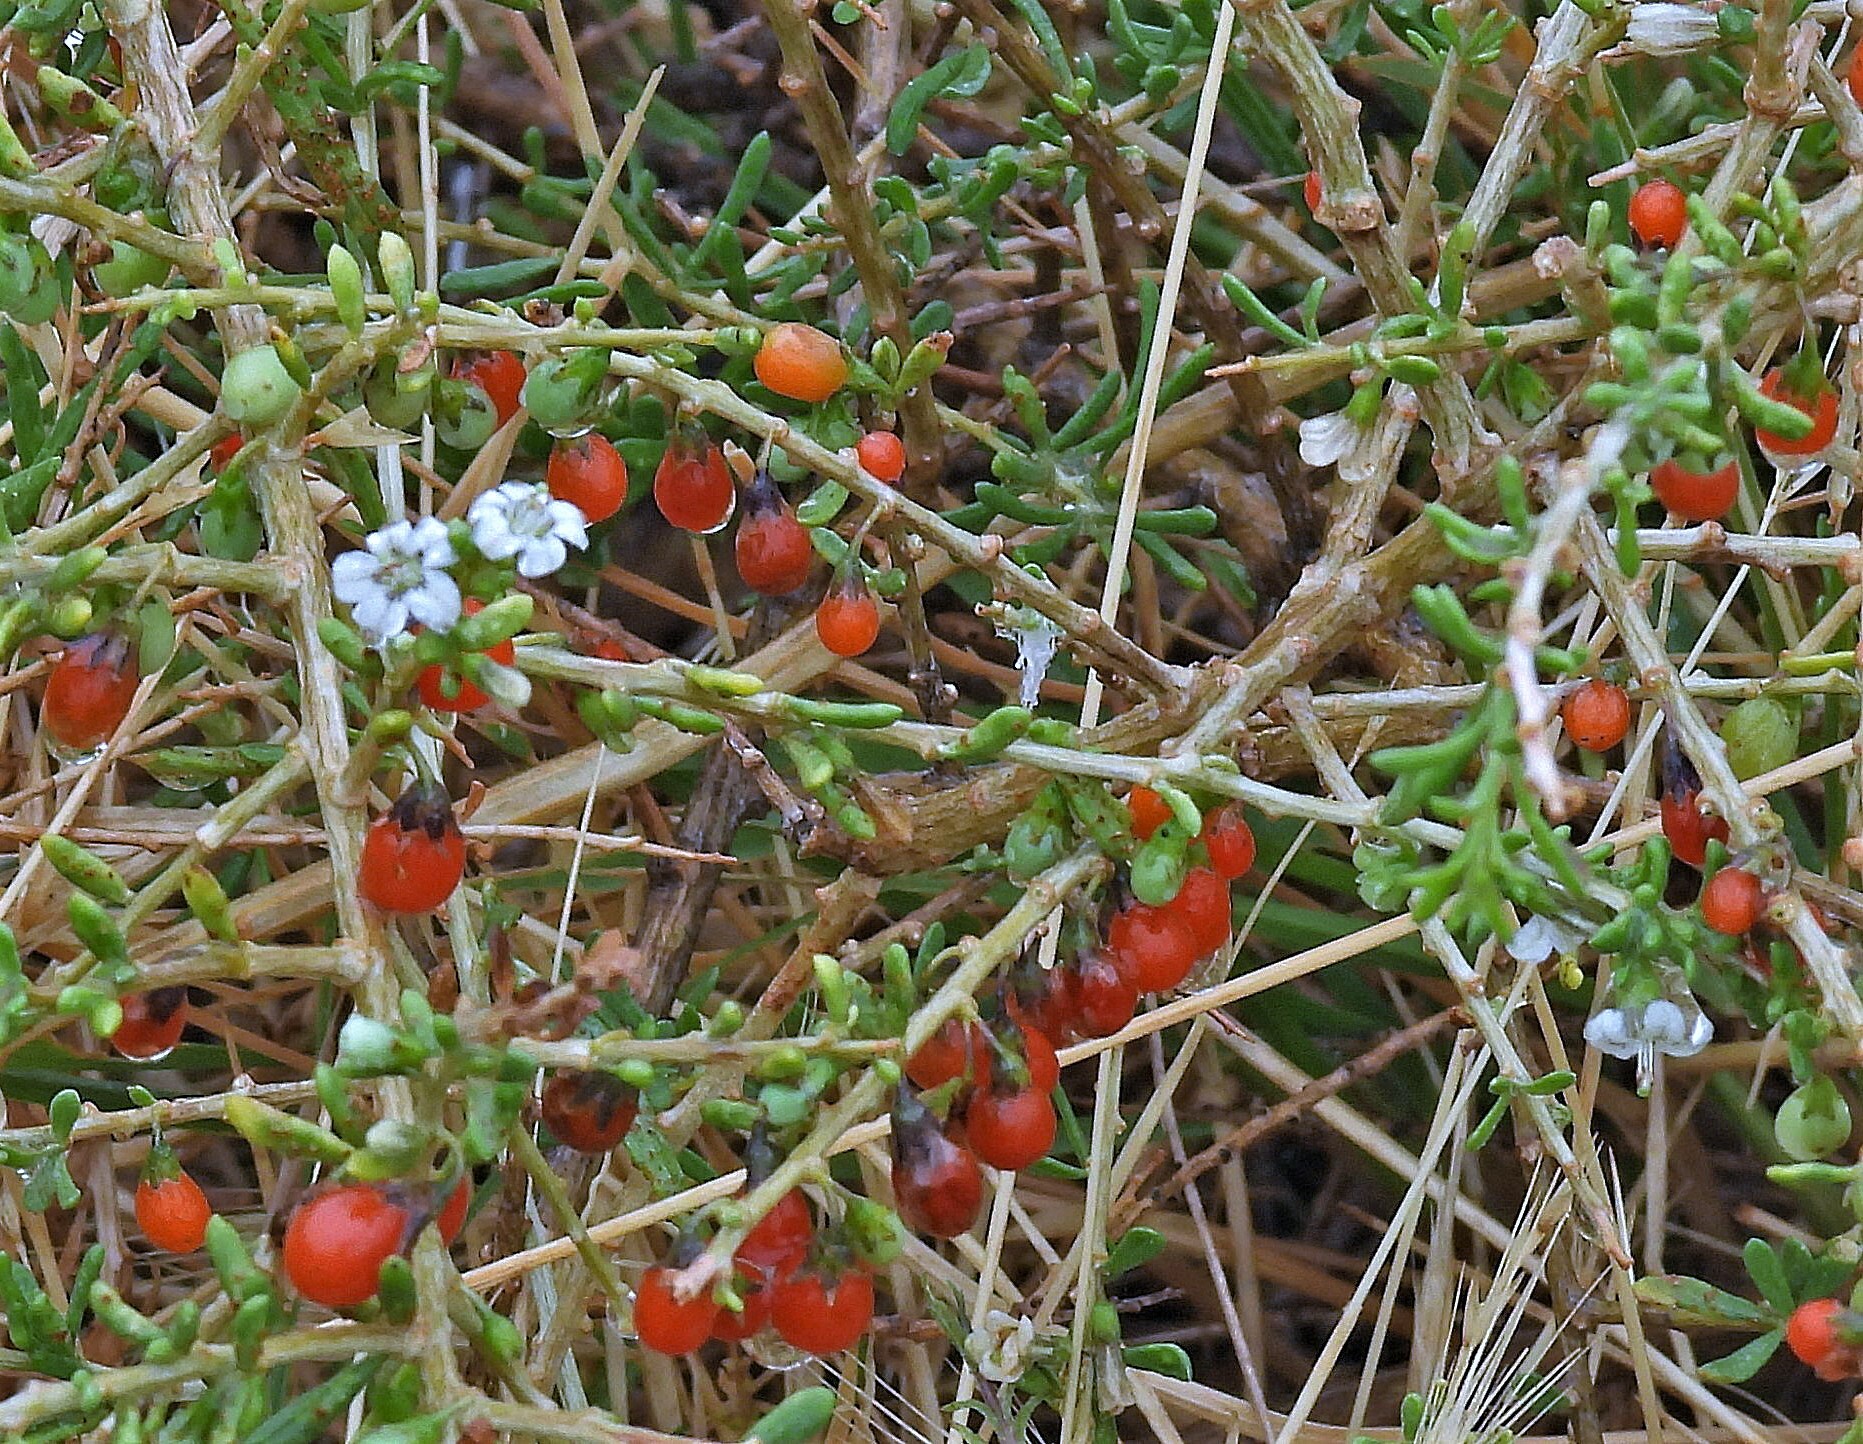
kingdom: Plantae
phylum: Tracheophyta
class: Magnoliopsida
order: Solanales
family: Solanaceae
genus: Lycium
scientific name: Lycium infaustum
